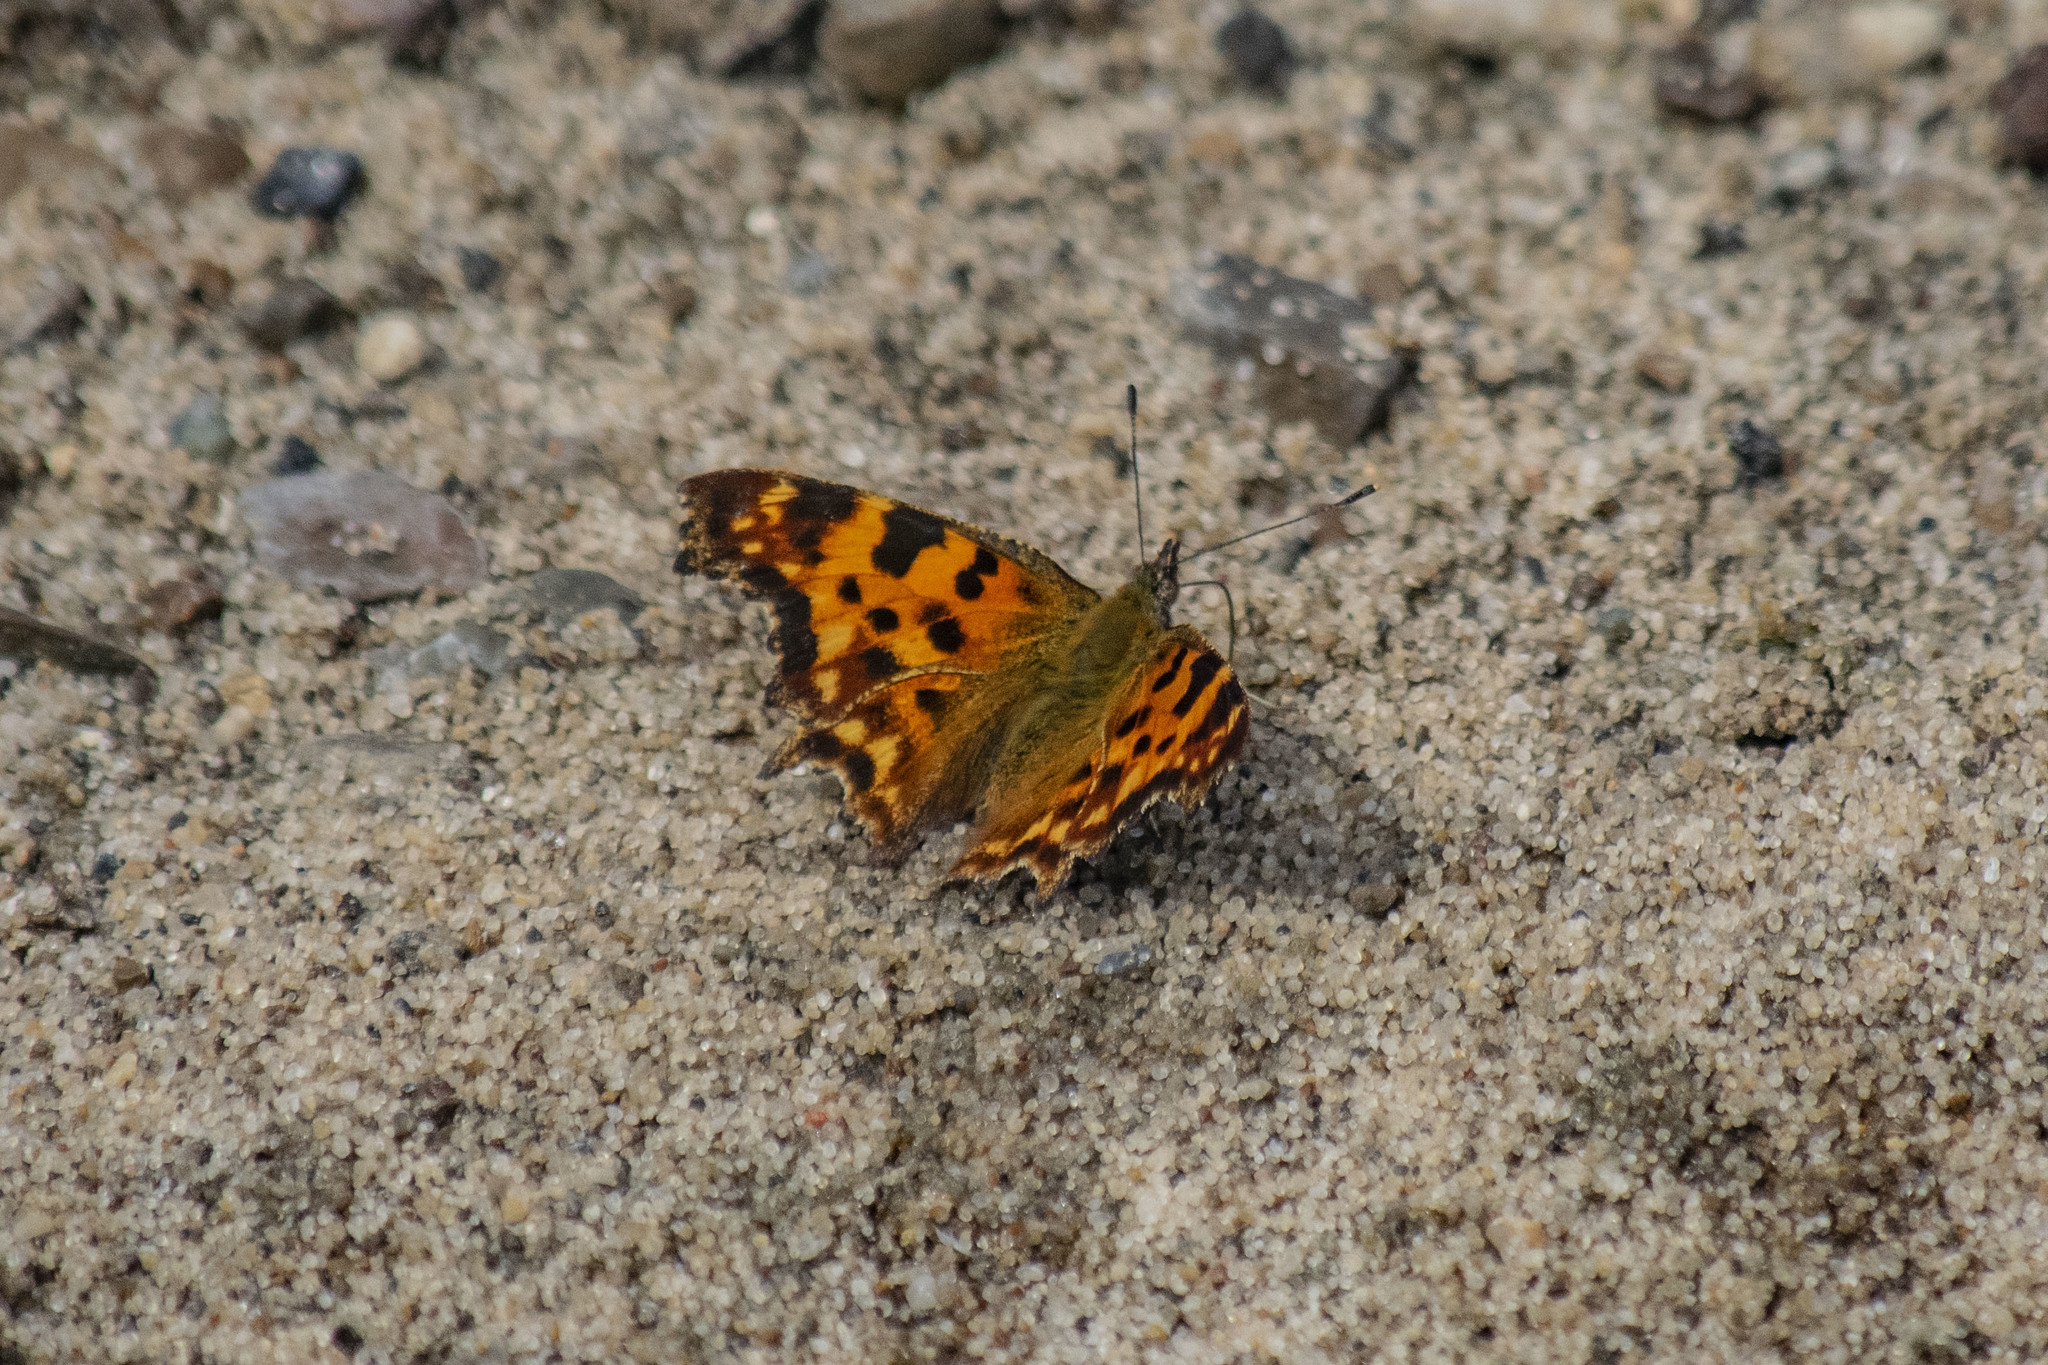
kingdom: Animalia
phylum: Arthropoda
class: Insecta
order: Lepidoptera
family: Nymphalidae
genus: Polygonia
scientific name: Polygonia c-album
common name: Comma
